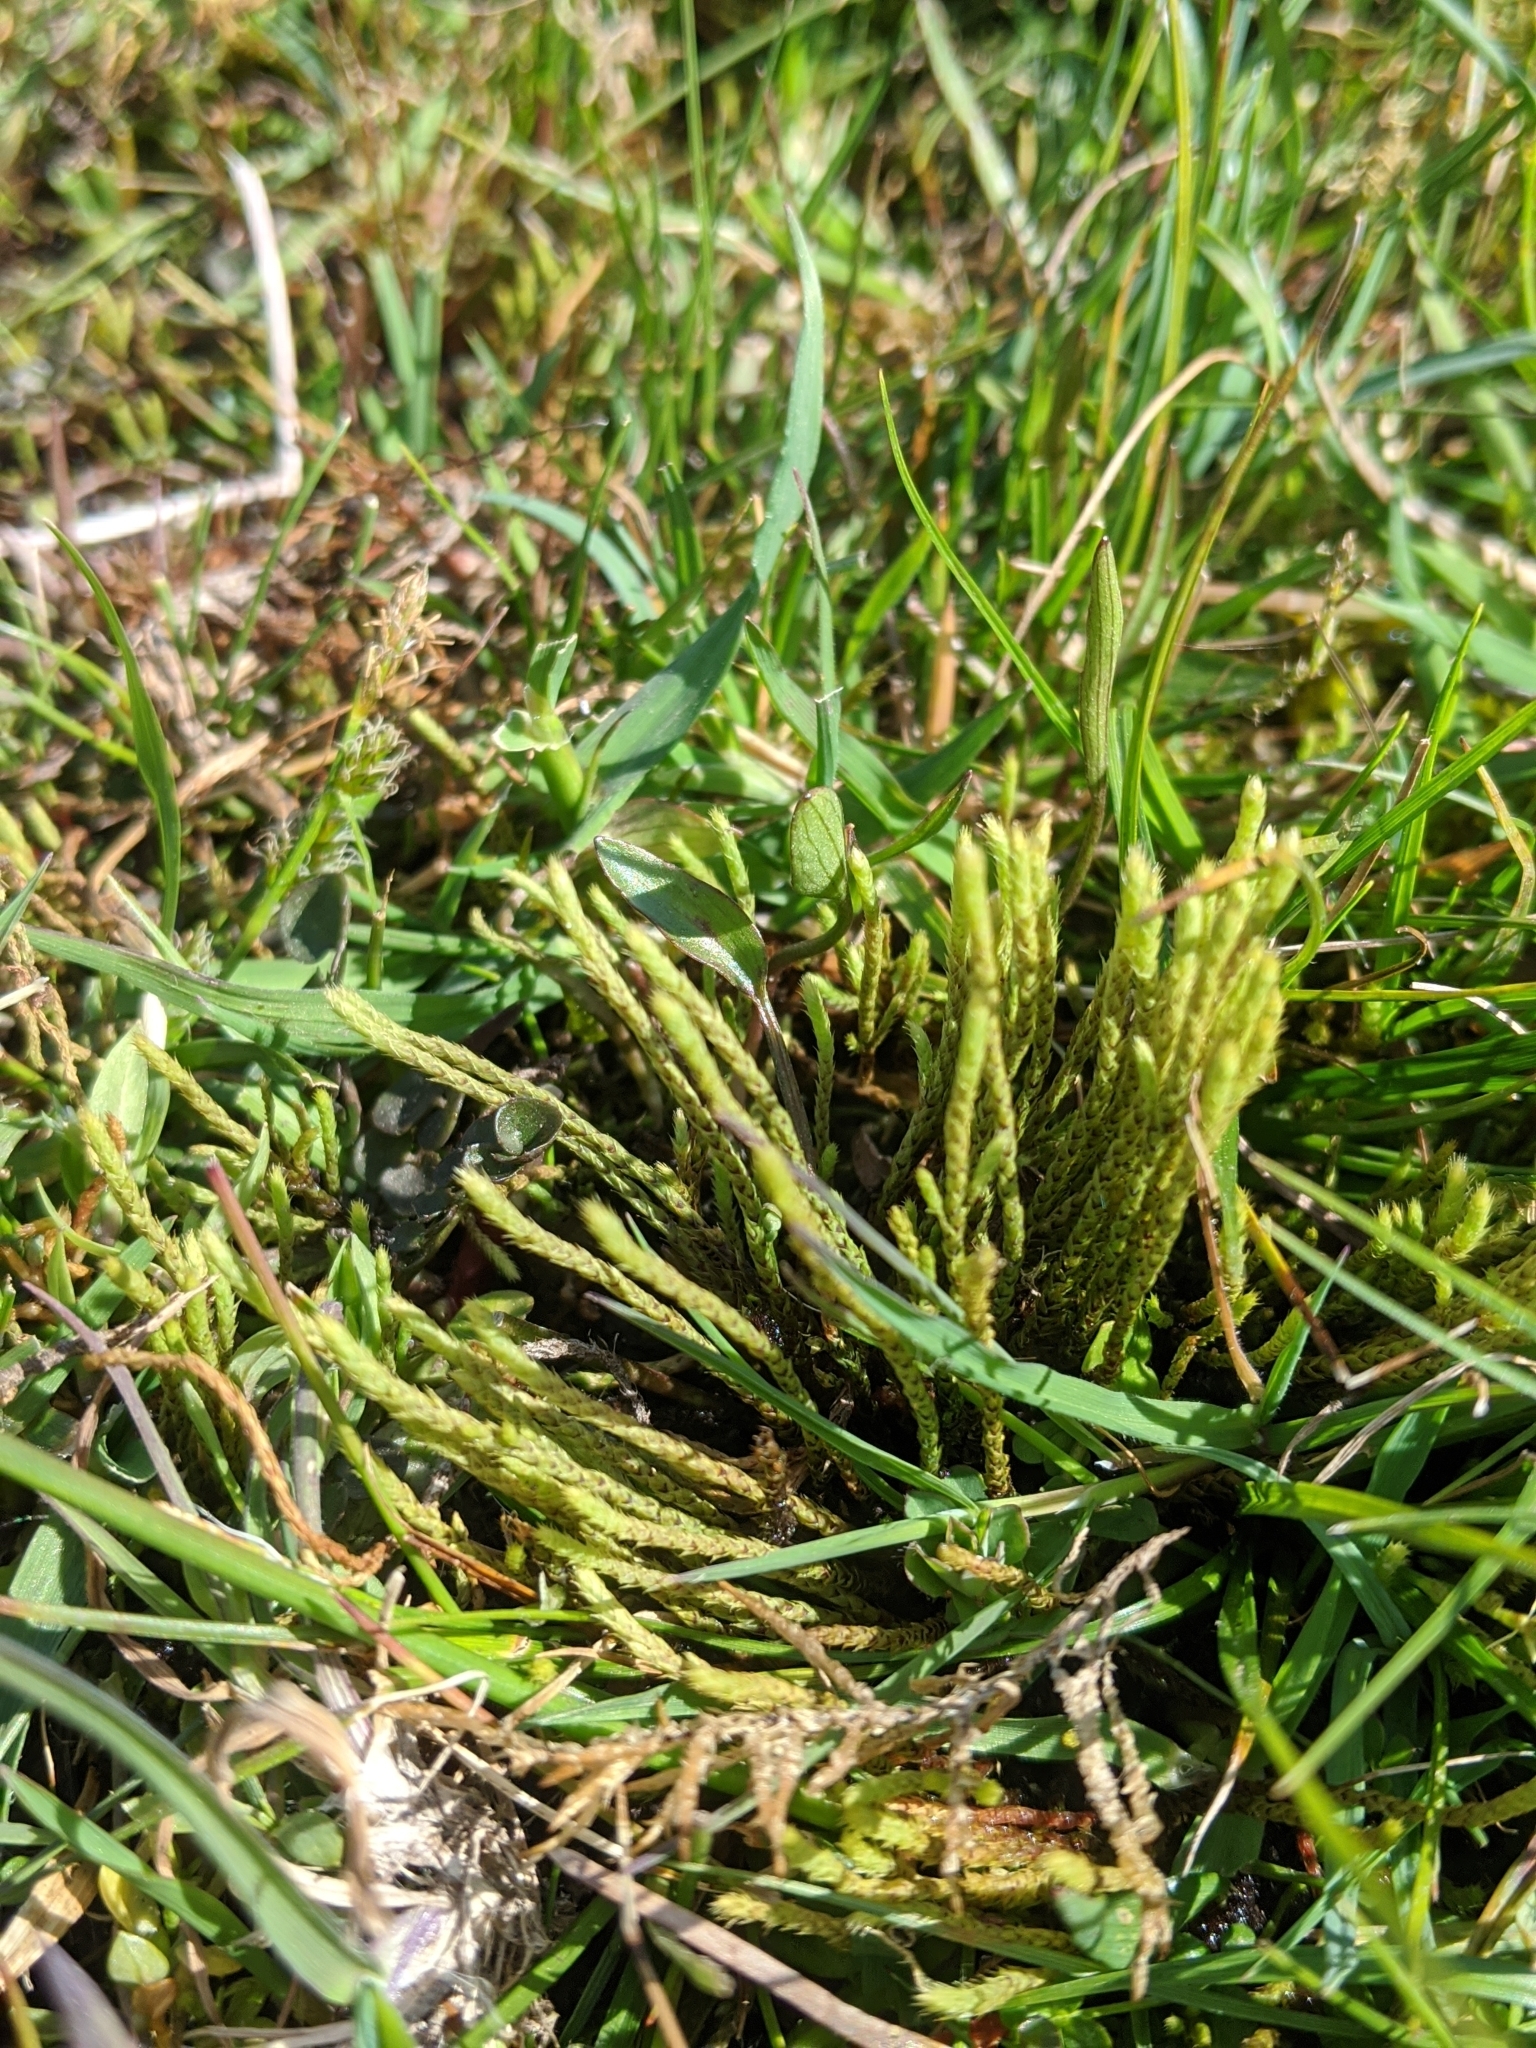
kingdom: Plantae
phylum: Bryophyta
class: Bryopsida
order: Bartramiales
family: Bartramiaceae
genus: Philonotis
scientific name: Philonotis tomentella
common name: Woolly apple moss
